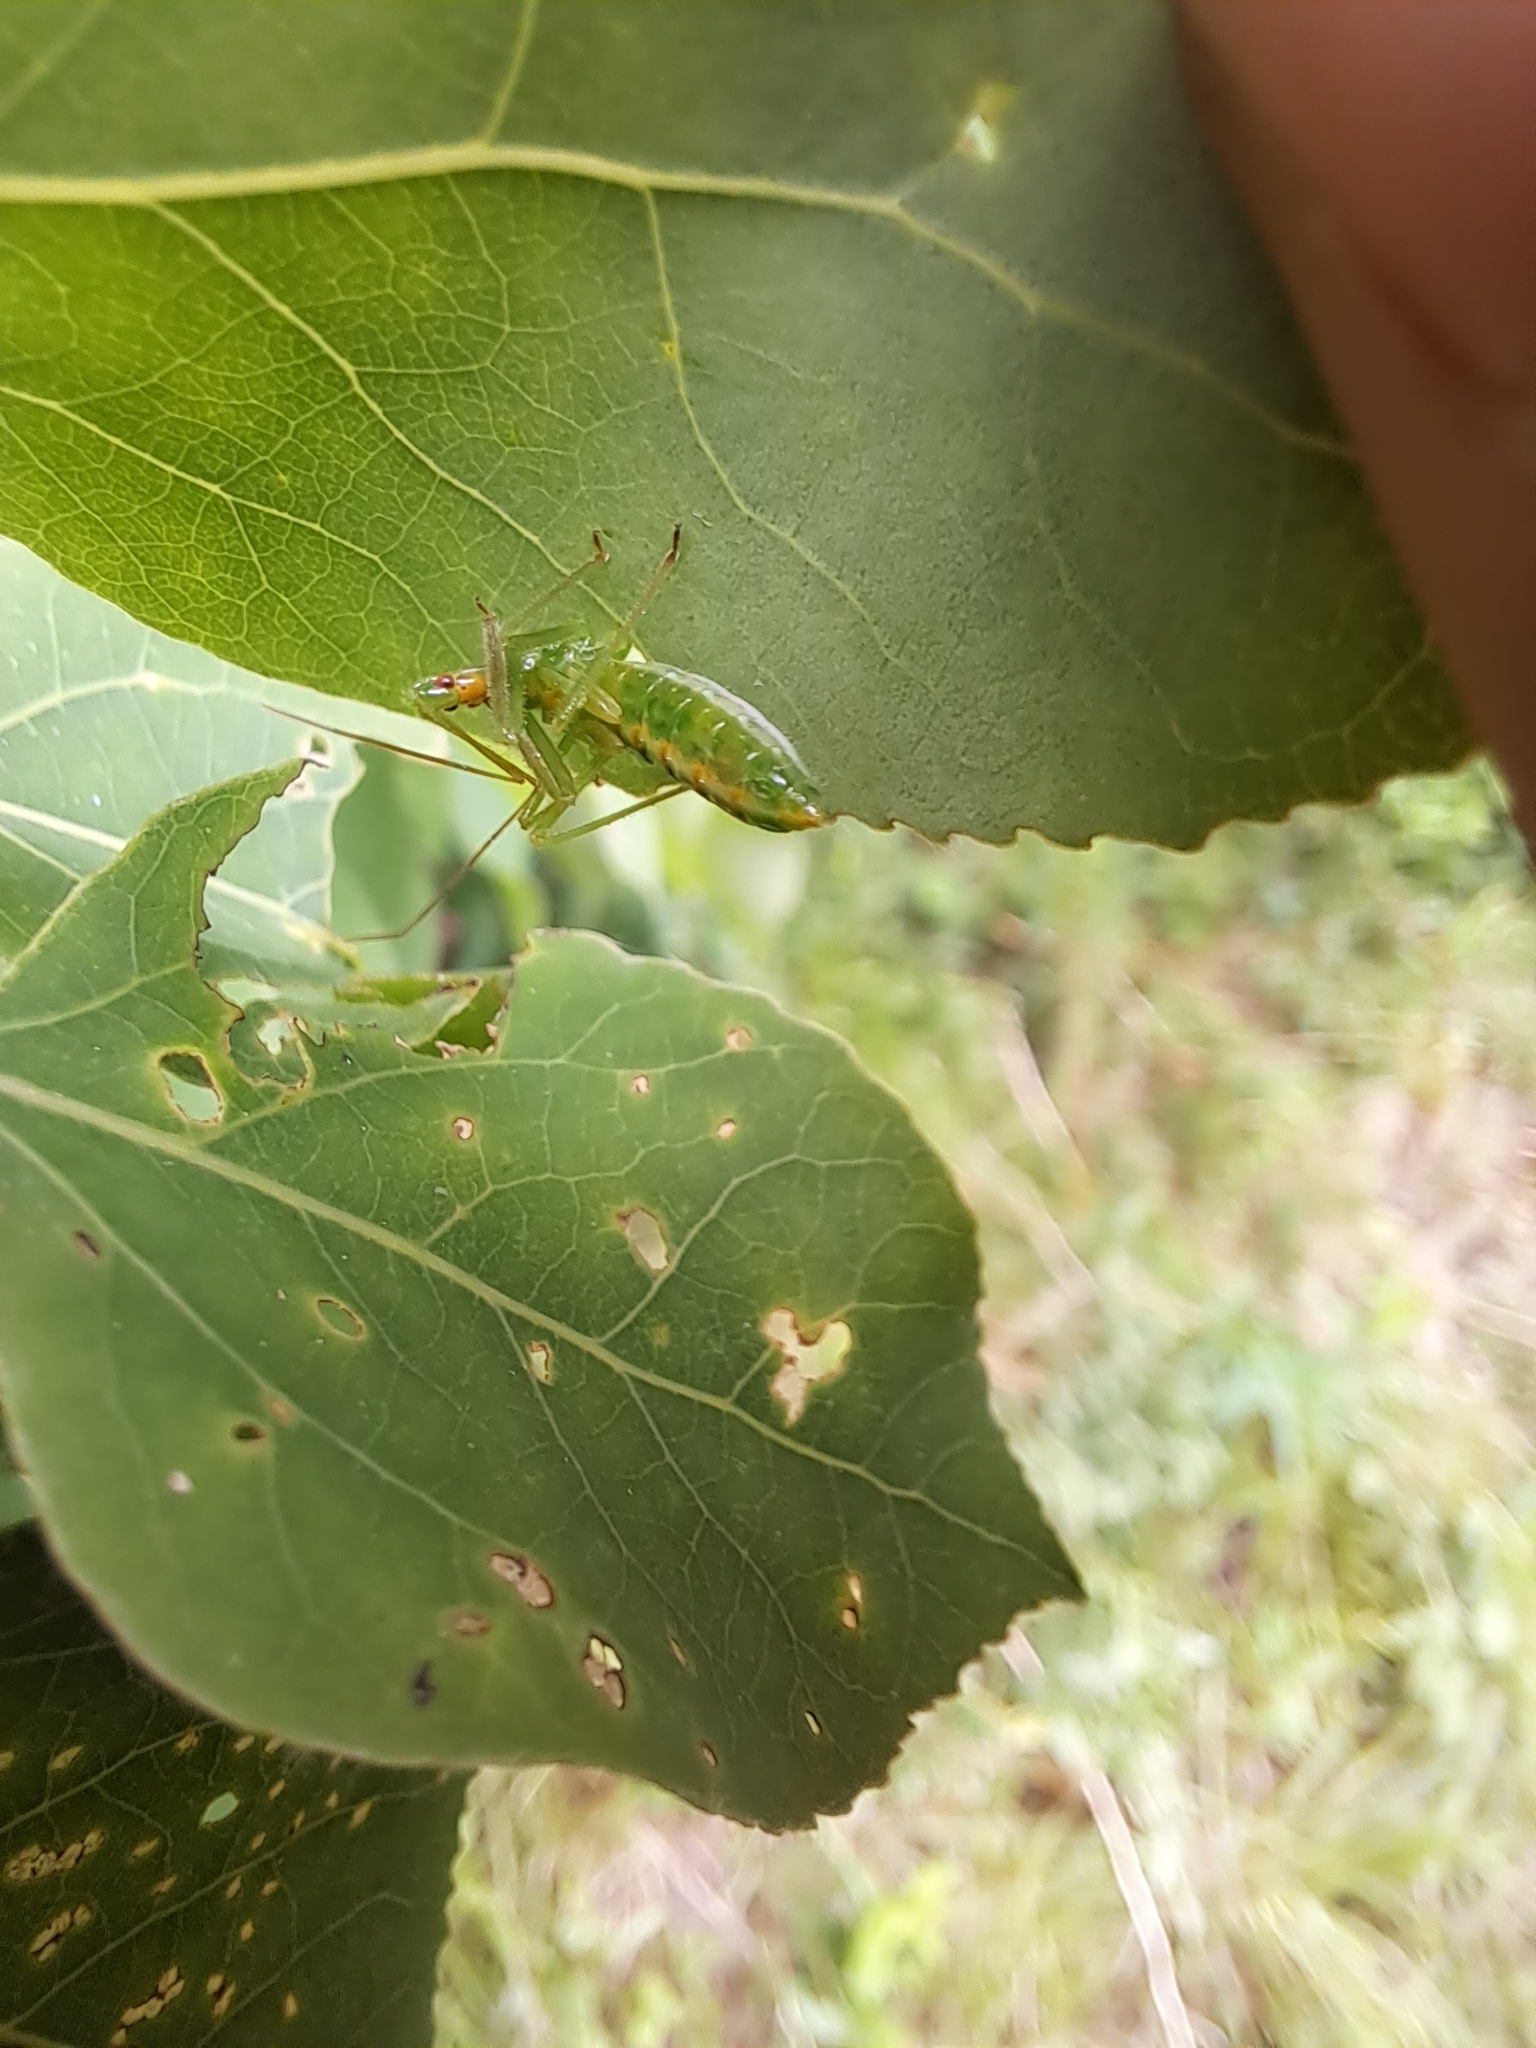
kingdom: Animalia
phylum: Arthropoda
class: Insecta
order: Hemiptera
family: Reduviidae
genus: Zelus
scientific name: Zelus luridus
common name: Pale green assassin bug
